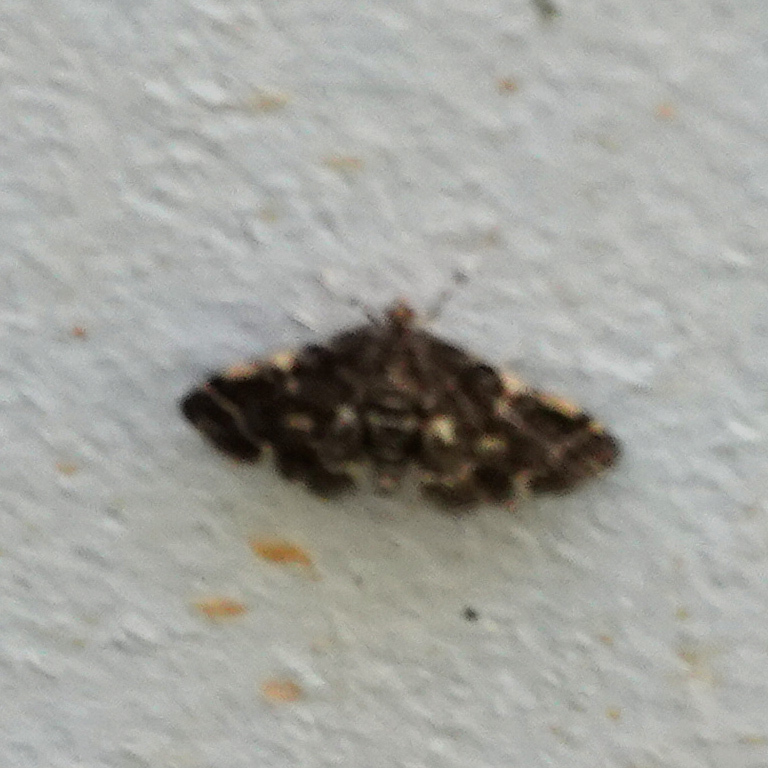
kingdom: Animalia
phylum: Arthropoda
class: Insecta
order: Lepidoptera
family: Crambidae
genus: Anageshna
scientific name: Anageshna primordialis
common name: Yellow-spotted webworm moth
